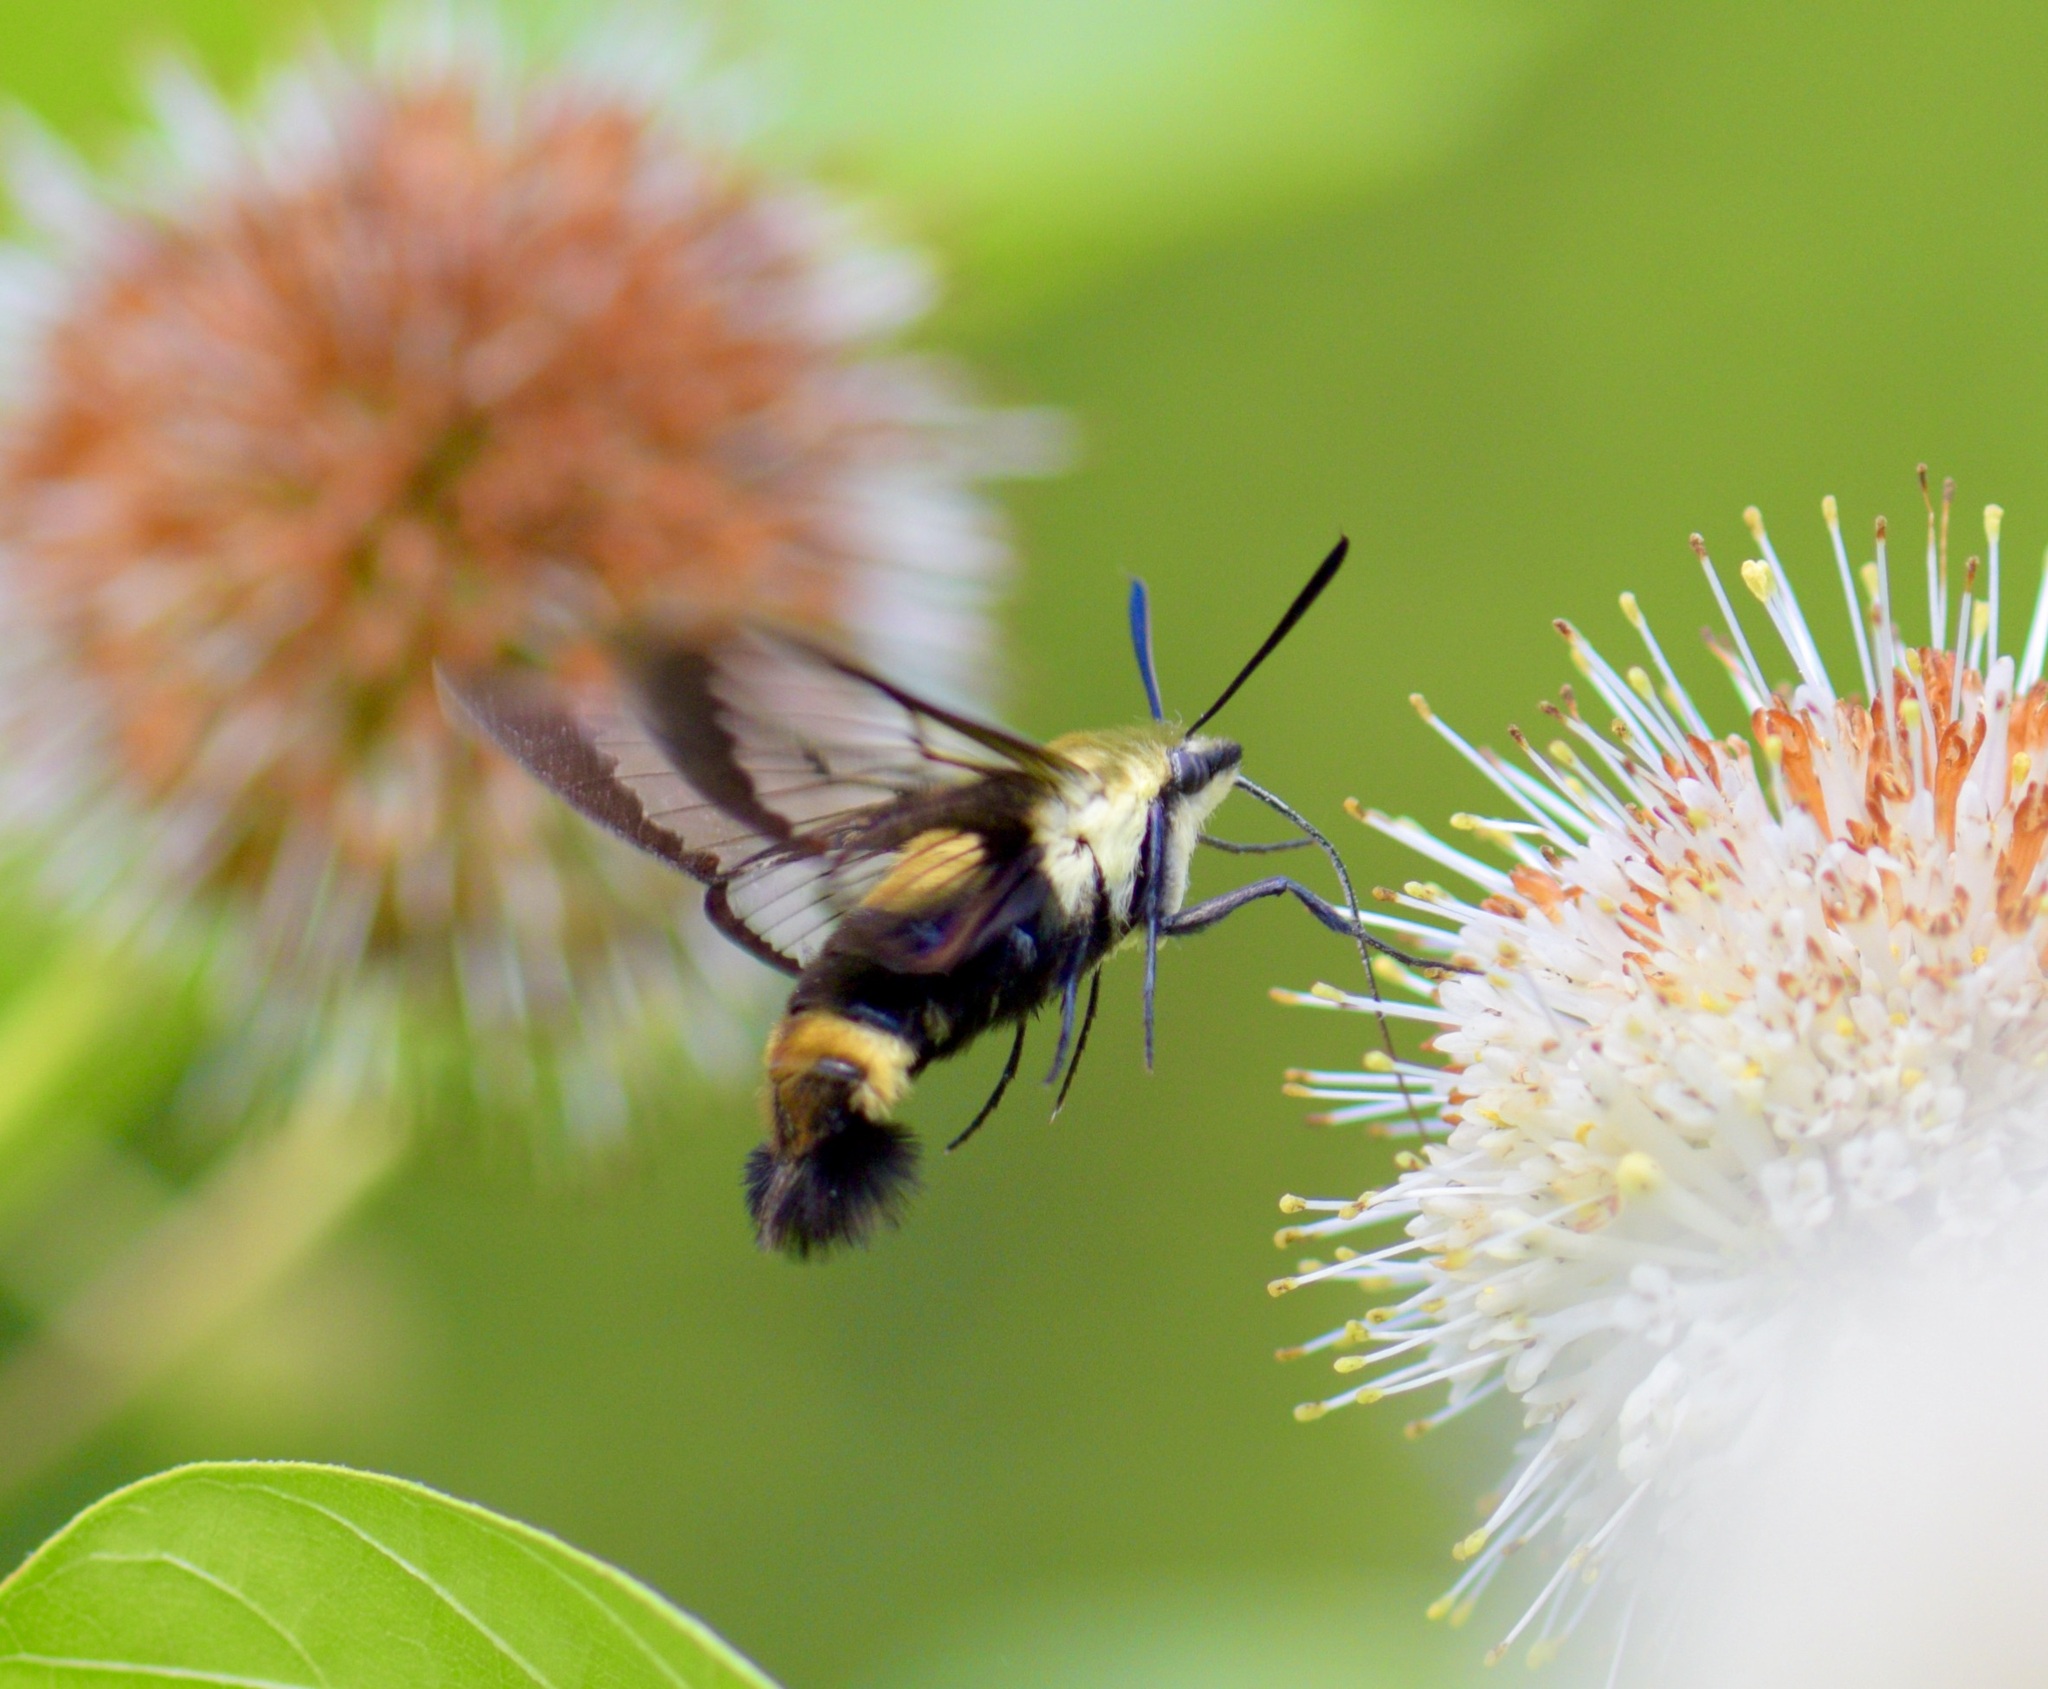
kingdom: Animalia
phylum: Arthropoda
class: Insecta
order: Lepidoptera
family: Sphingidae
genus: Hemaris
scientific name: Hemaris diffinis
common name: Bumblebee moth
